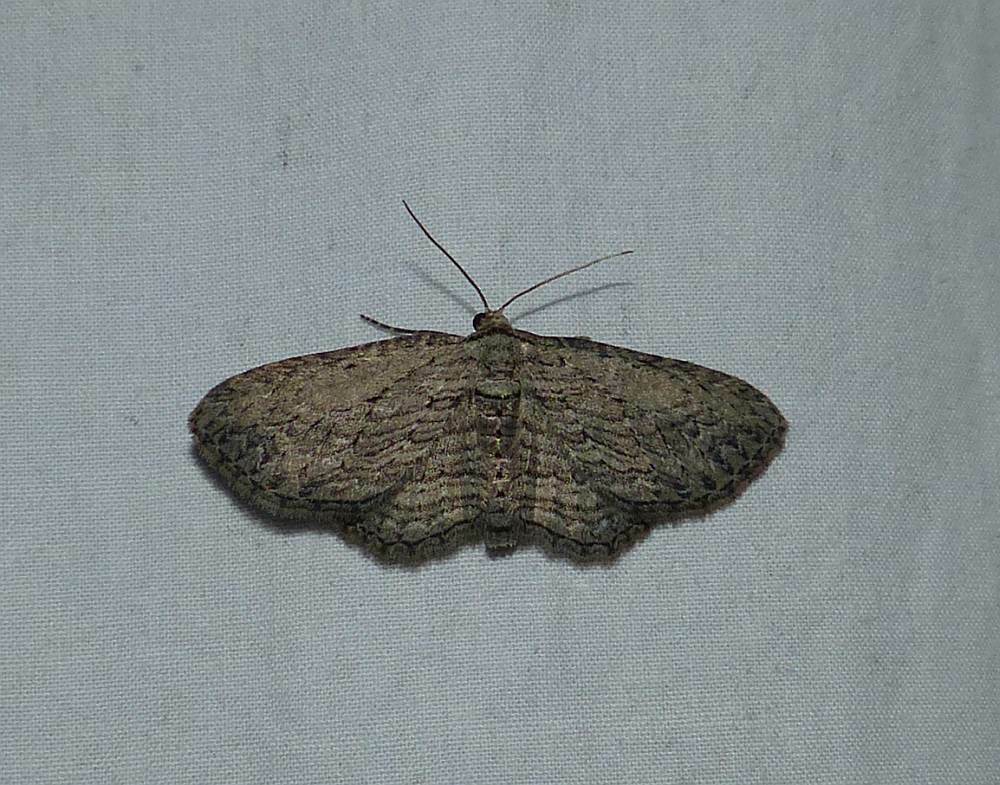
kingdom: Animalia
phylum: Arthropoda
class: Insecta
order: Lepidoptera
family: Geometridae
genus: Horisme
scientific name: Horisme intestinata
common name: Brown bark carpet
